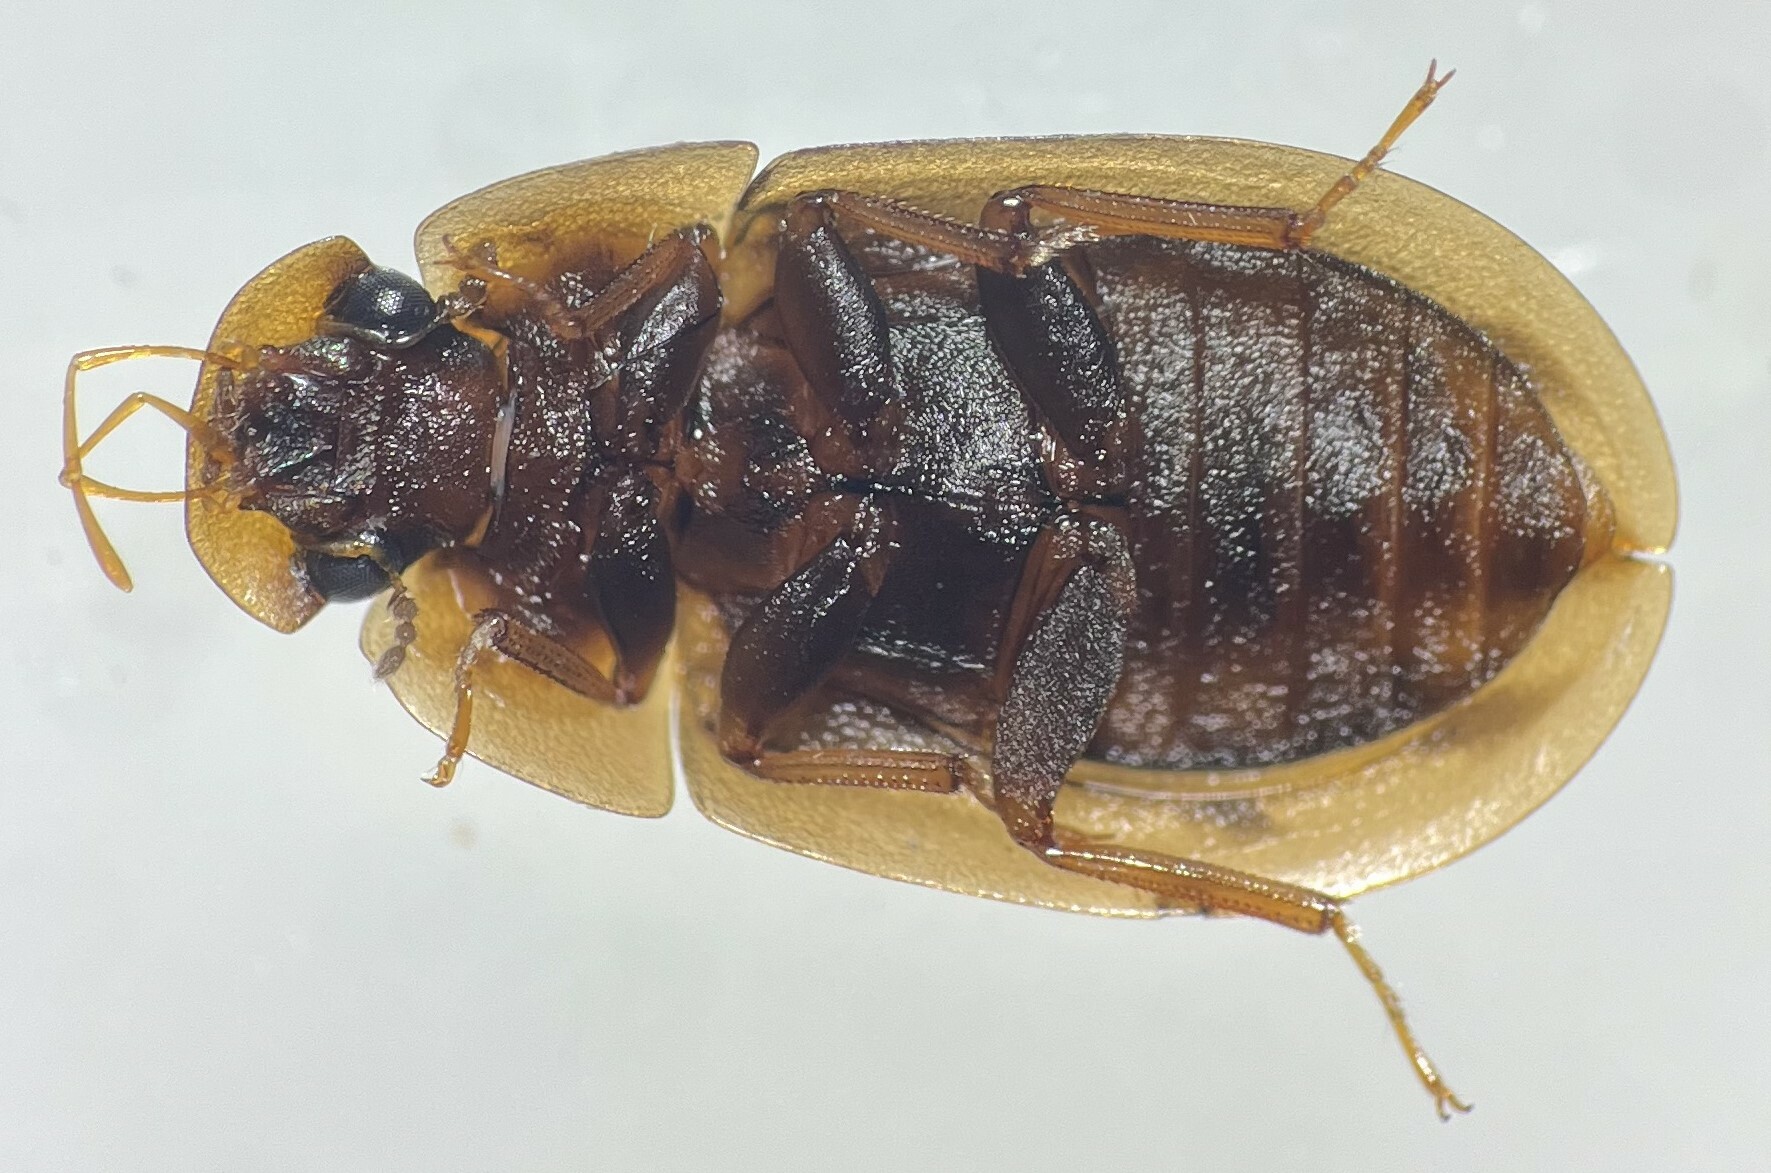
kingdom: Animalia
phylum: Arthropoda
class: Insecta
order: Coleoptera
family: Hydrophilidae
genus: Helobata
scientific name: Helobata larvalis
